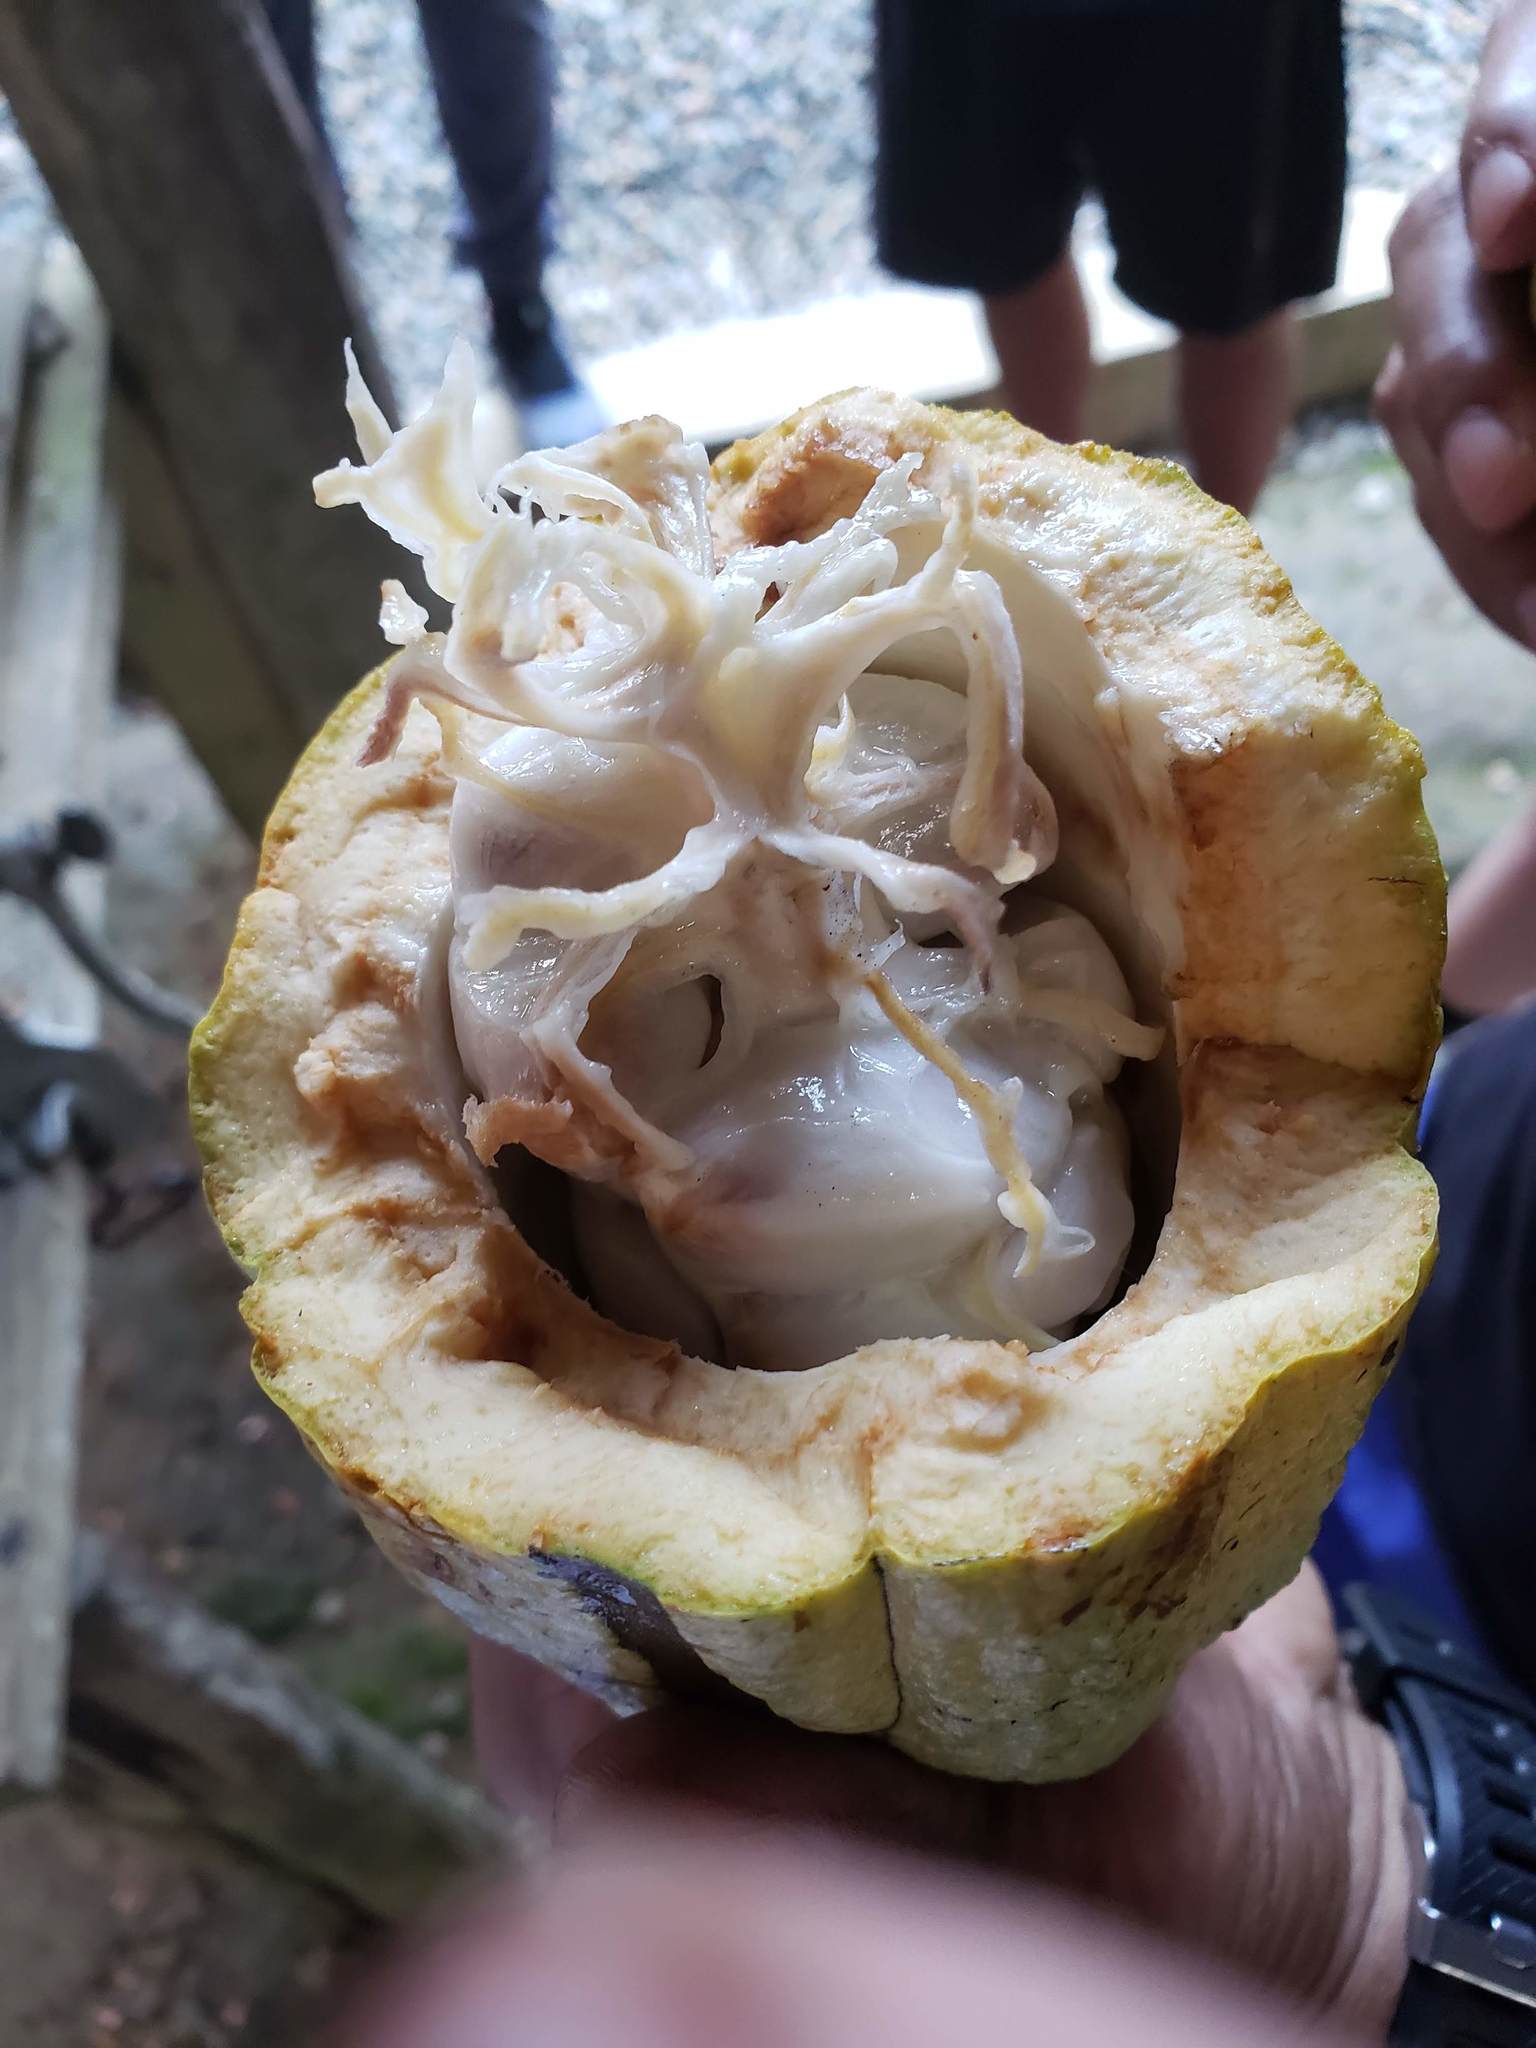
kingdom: Plantae
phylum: Tracheophyta
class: Magnoliopsida
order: Malvales
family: Malvaceae
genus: Theobroma
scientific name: Theobroma cacao
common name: Cocoa
